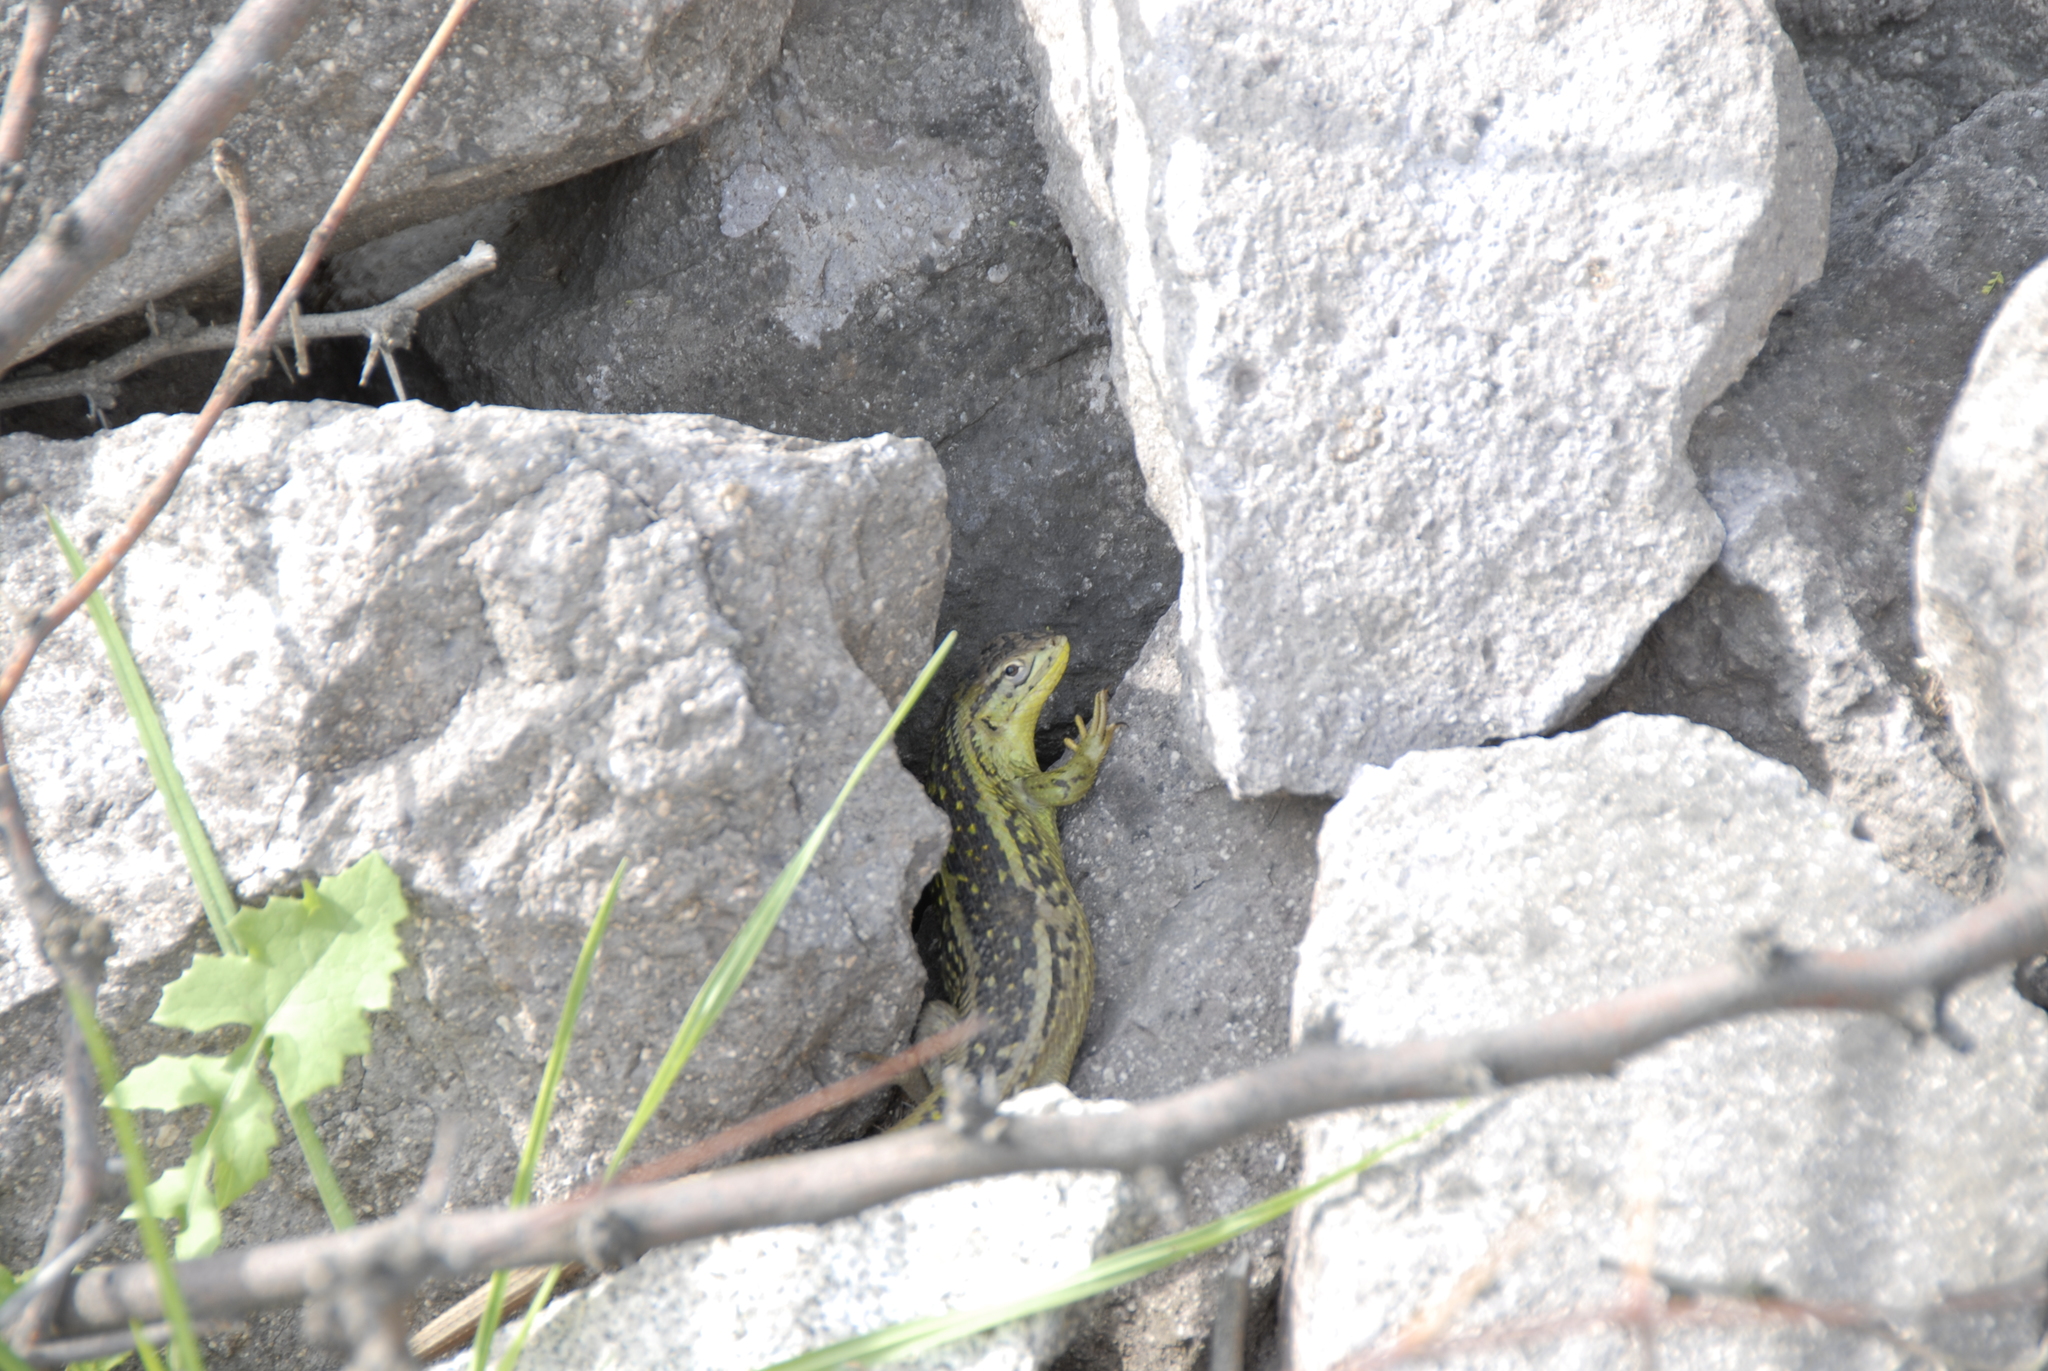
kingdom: Animalia
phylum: Chordata
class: Squamata
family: Liolaemidae
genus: Liolaemus
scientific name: Liolaemus chiliensis
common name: Chilean tree iguana
